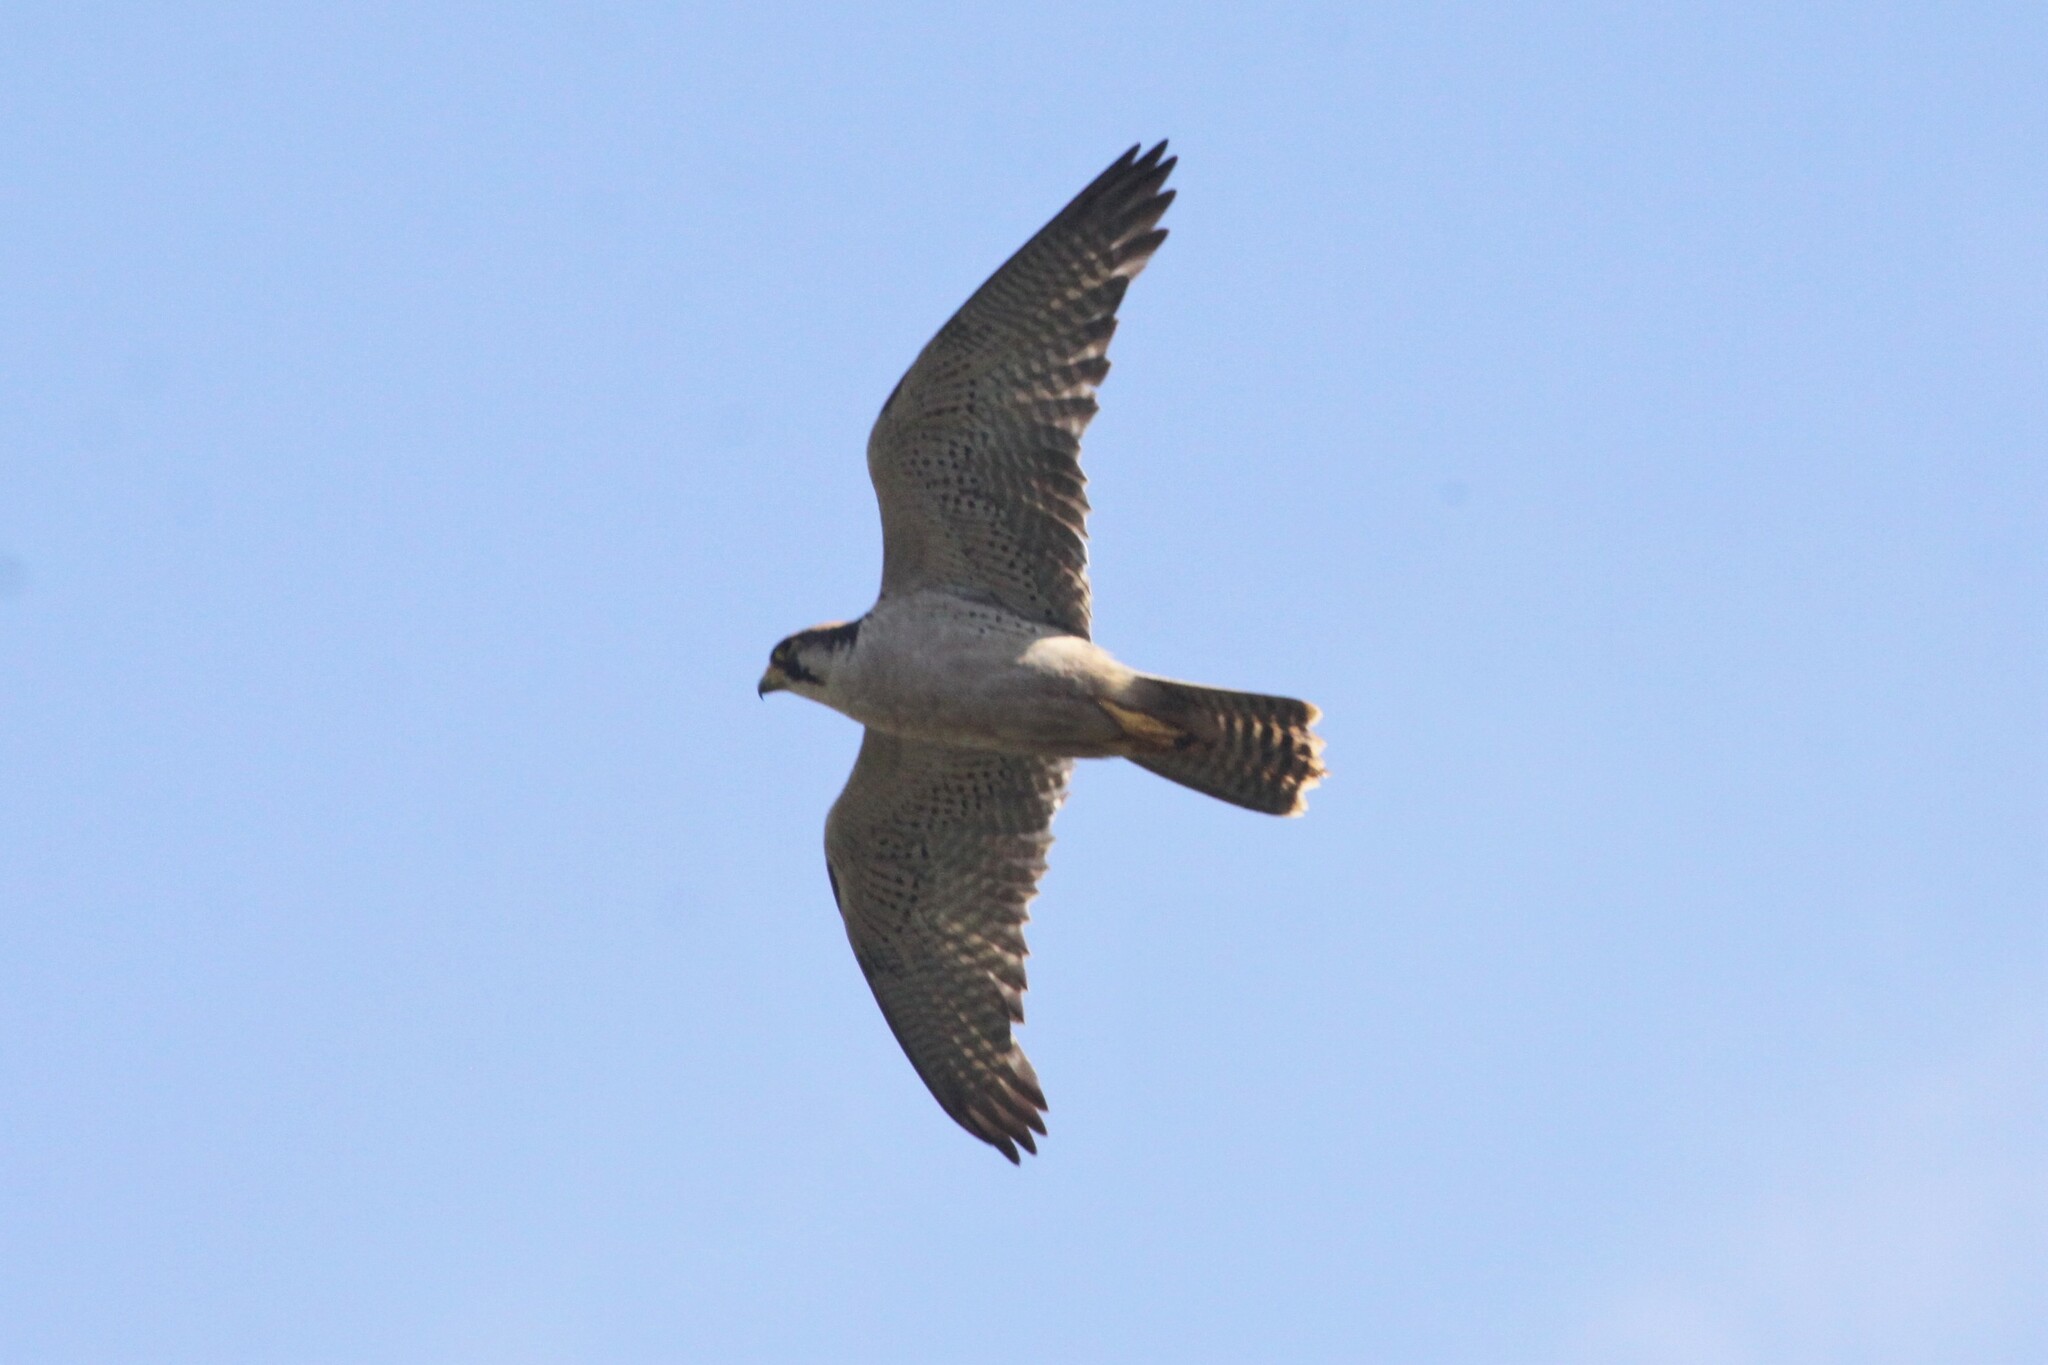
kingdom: Animalia
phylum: Chordata
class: Aves
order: Falconiformes
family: Falconidae
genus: Falco
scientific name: Falco biarmicus
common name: Lanner falcon
